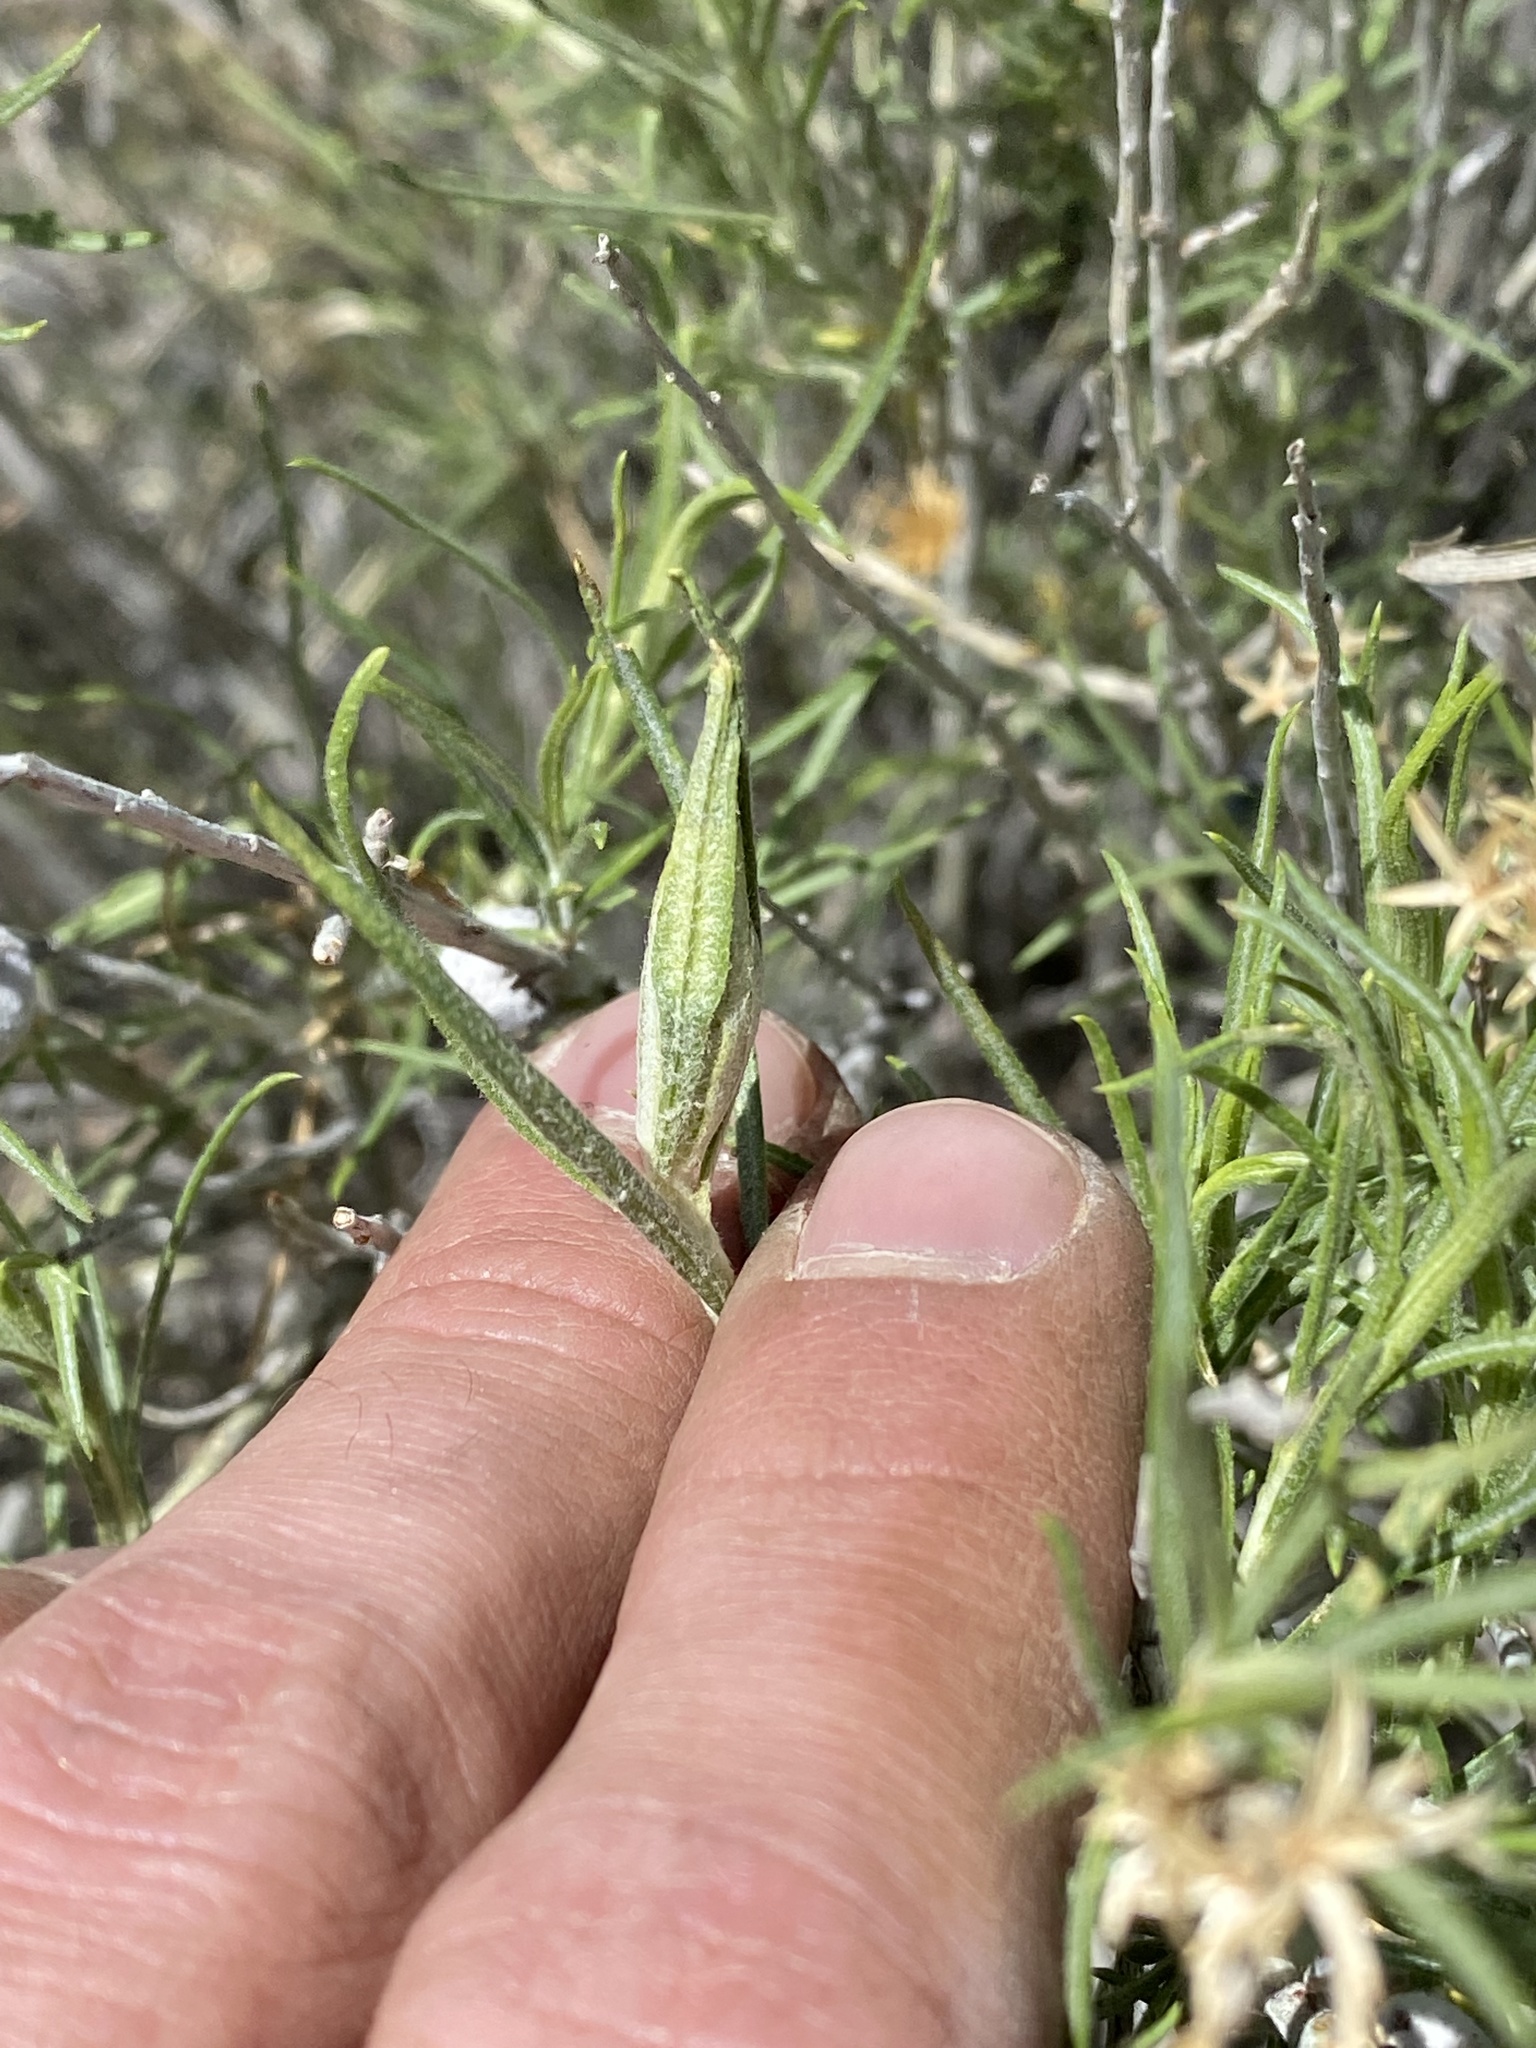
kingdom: Animalia
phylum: Arthropoda
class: Insecta
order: Lepidoptera
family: Gelechiidae
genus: Gnorimoschema
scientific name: Gnorimoschema octomaculella
